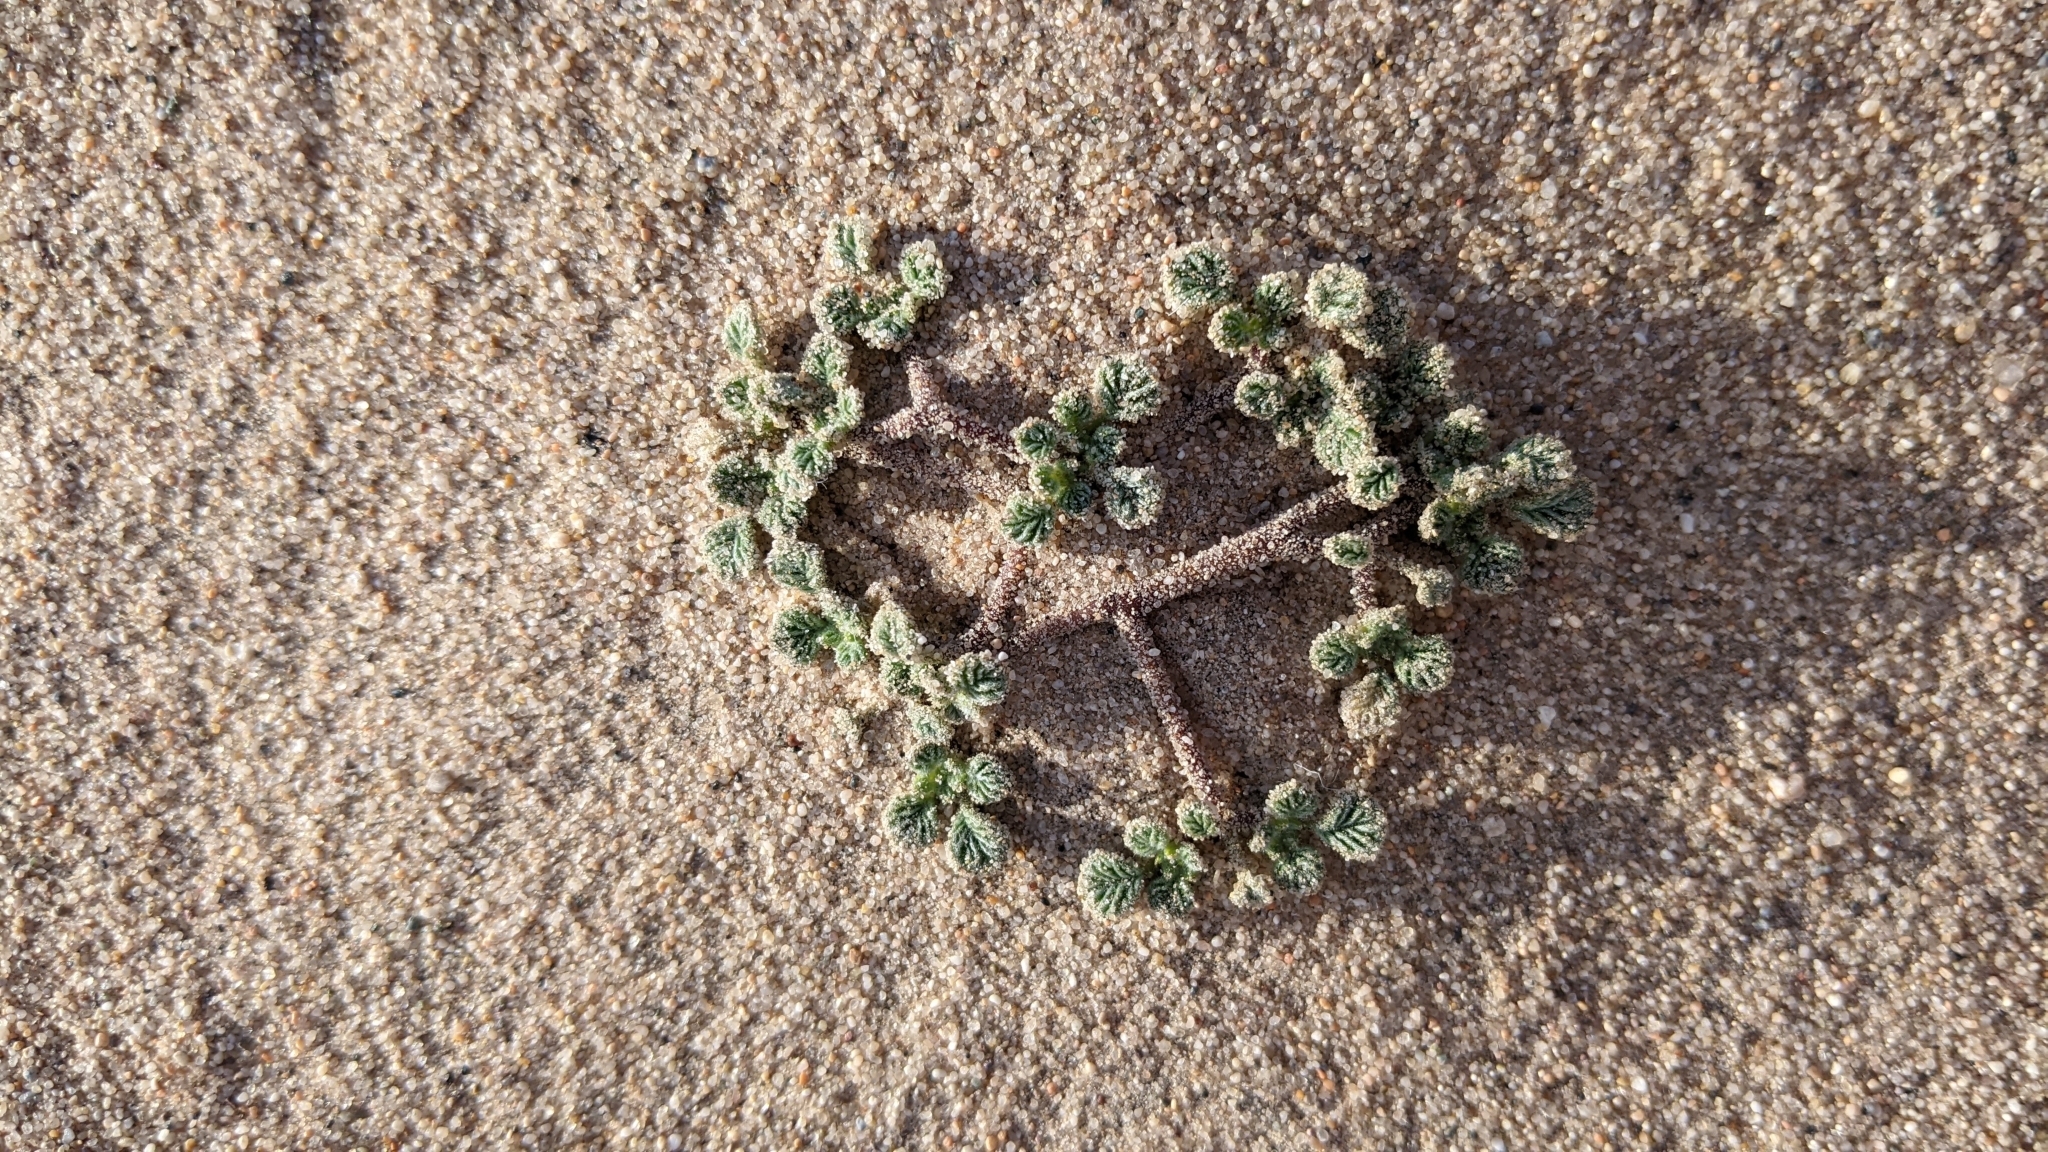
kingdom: Plantae
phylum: Tracheophyta
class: Magnoliopsida
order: Boraginales
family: Ehretiaceae
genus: Tiquilia
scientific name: Tiquilia plicata
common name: Fan-leaf tiquilia
